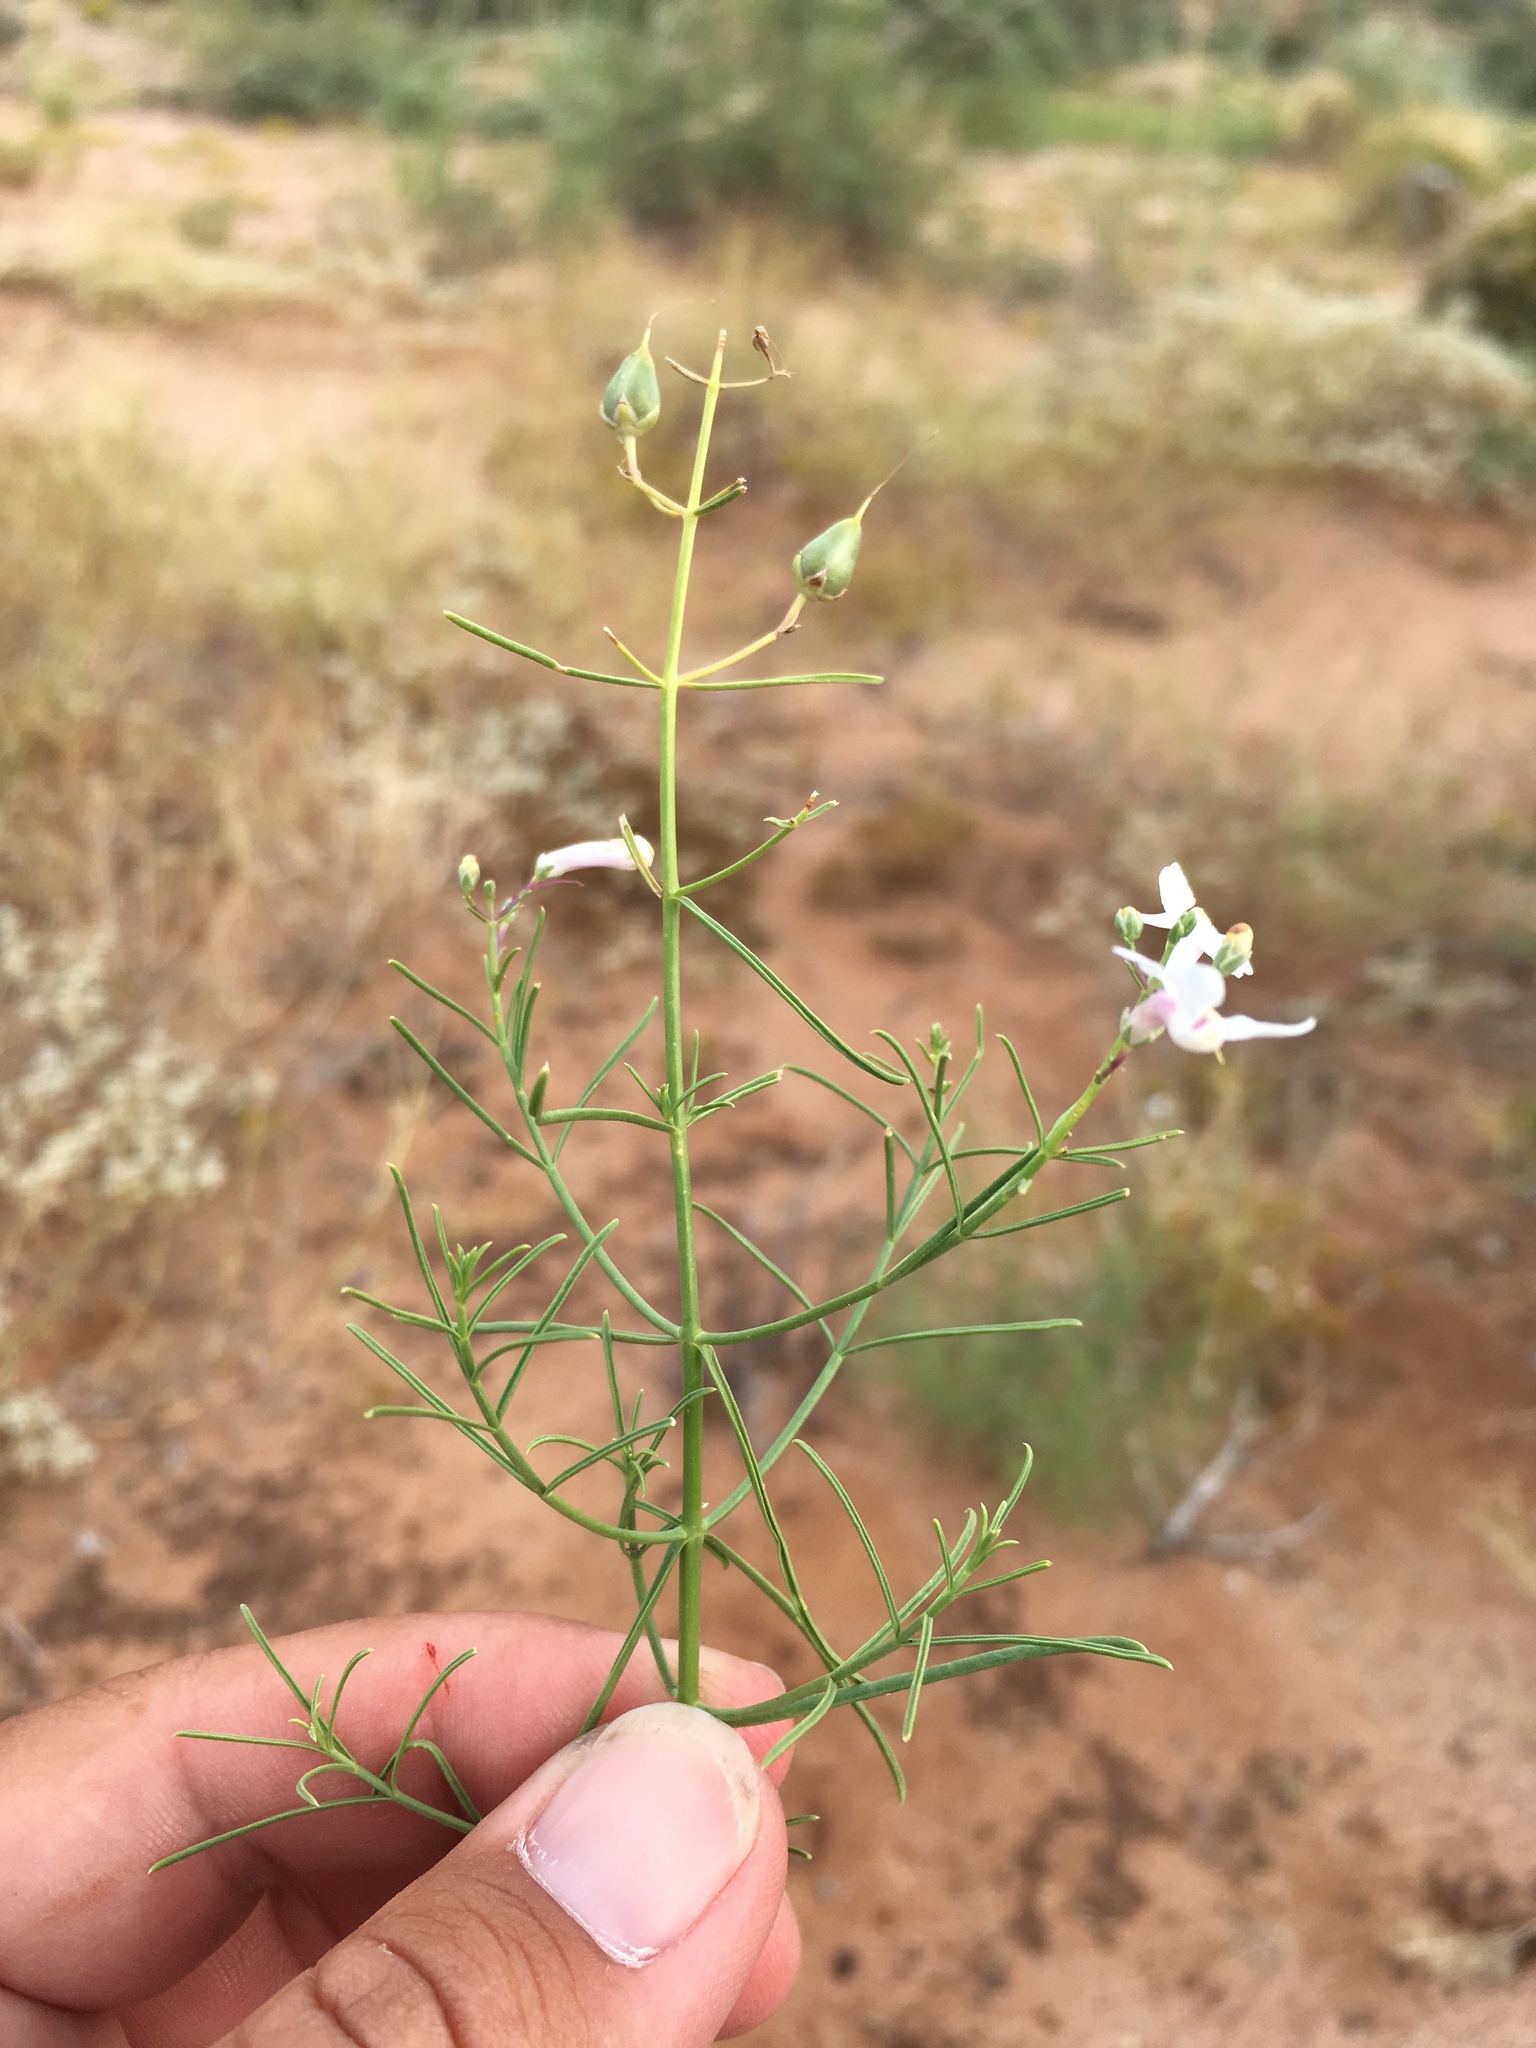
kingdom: Plantae
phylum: Tracheophyta
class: Magnoliopsida
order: Lamiales
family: Plantaginaceae
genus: Penstemon
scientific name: Penstemon ambiguus
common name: Bush penstemon
